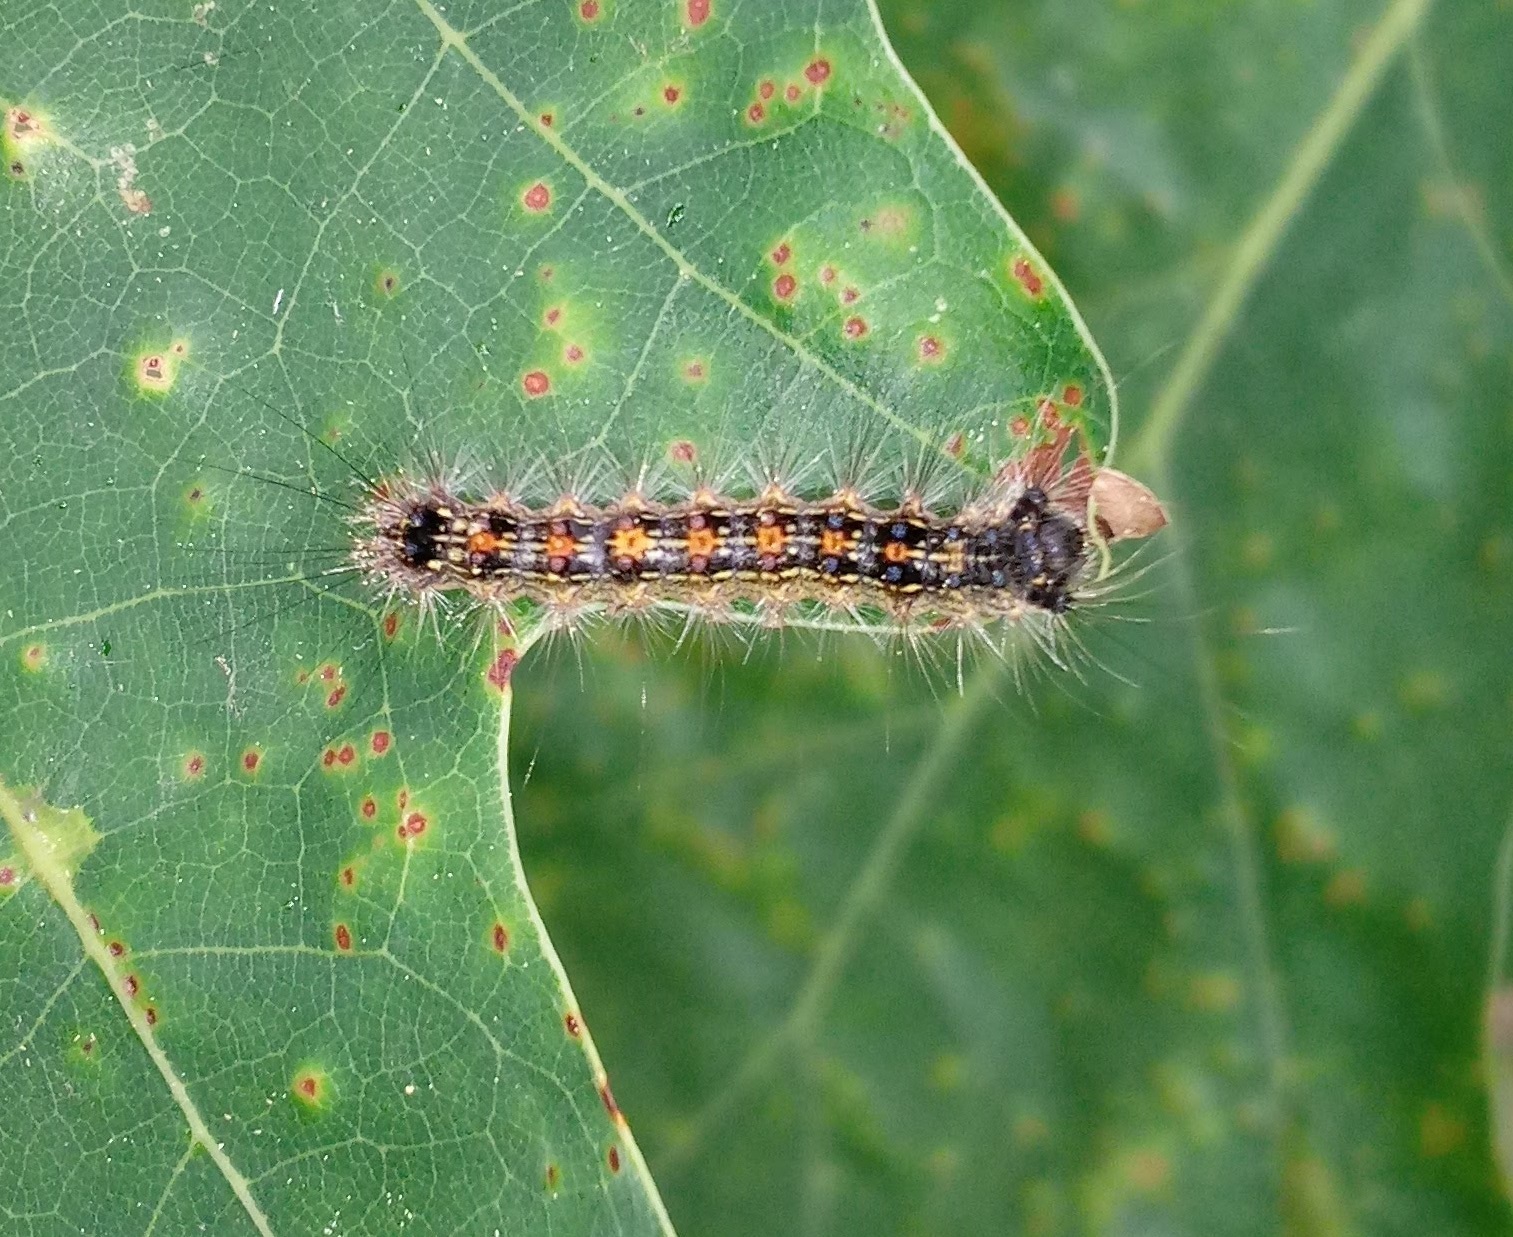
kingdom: Animalia
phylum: Arthropoda
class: Insecta
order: Lepidoptera
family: Erebidae
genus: Lymantria
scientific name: Lymantria dispar
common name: Gypsy moth
